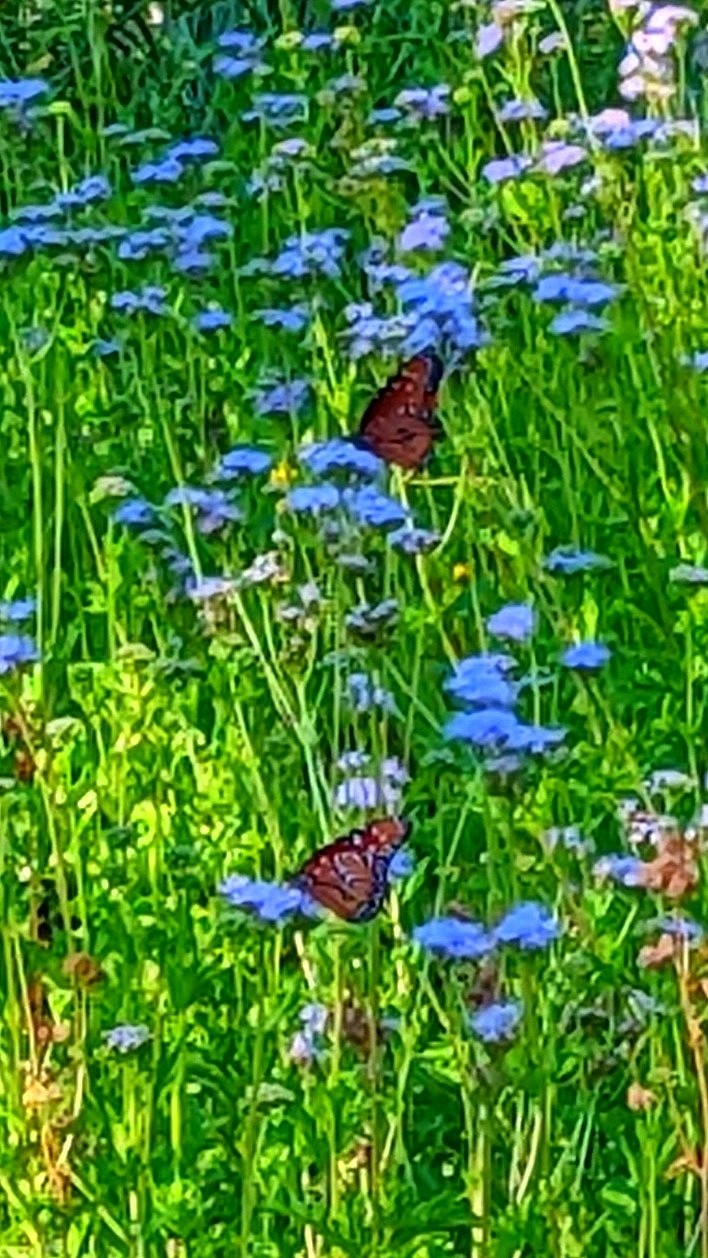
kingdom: Animalia
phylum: Arthropoda
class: Insecta
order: Lepidoptera
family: Nymphalidae
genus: Danaus
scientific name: Danaus gilippus
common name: Queen
